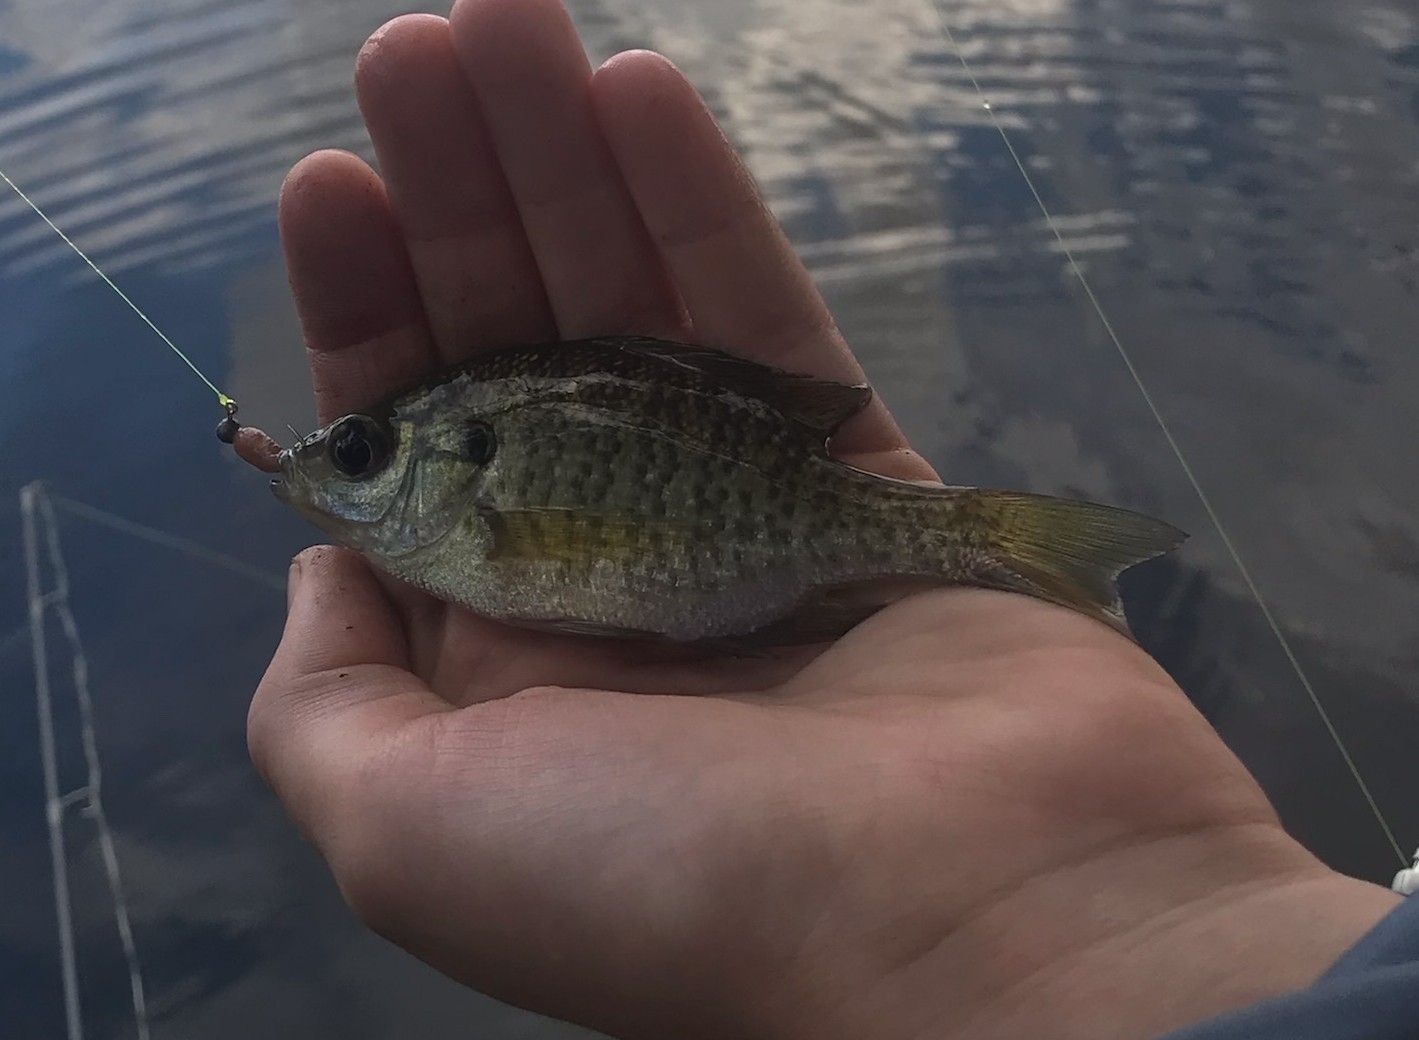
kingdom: Animalia
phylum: Chordata
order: Perciformes
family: Centrarchidae
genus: Lepomis
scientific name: Lepomis macrochirus
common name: Bluegill
